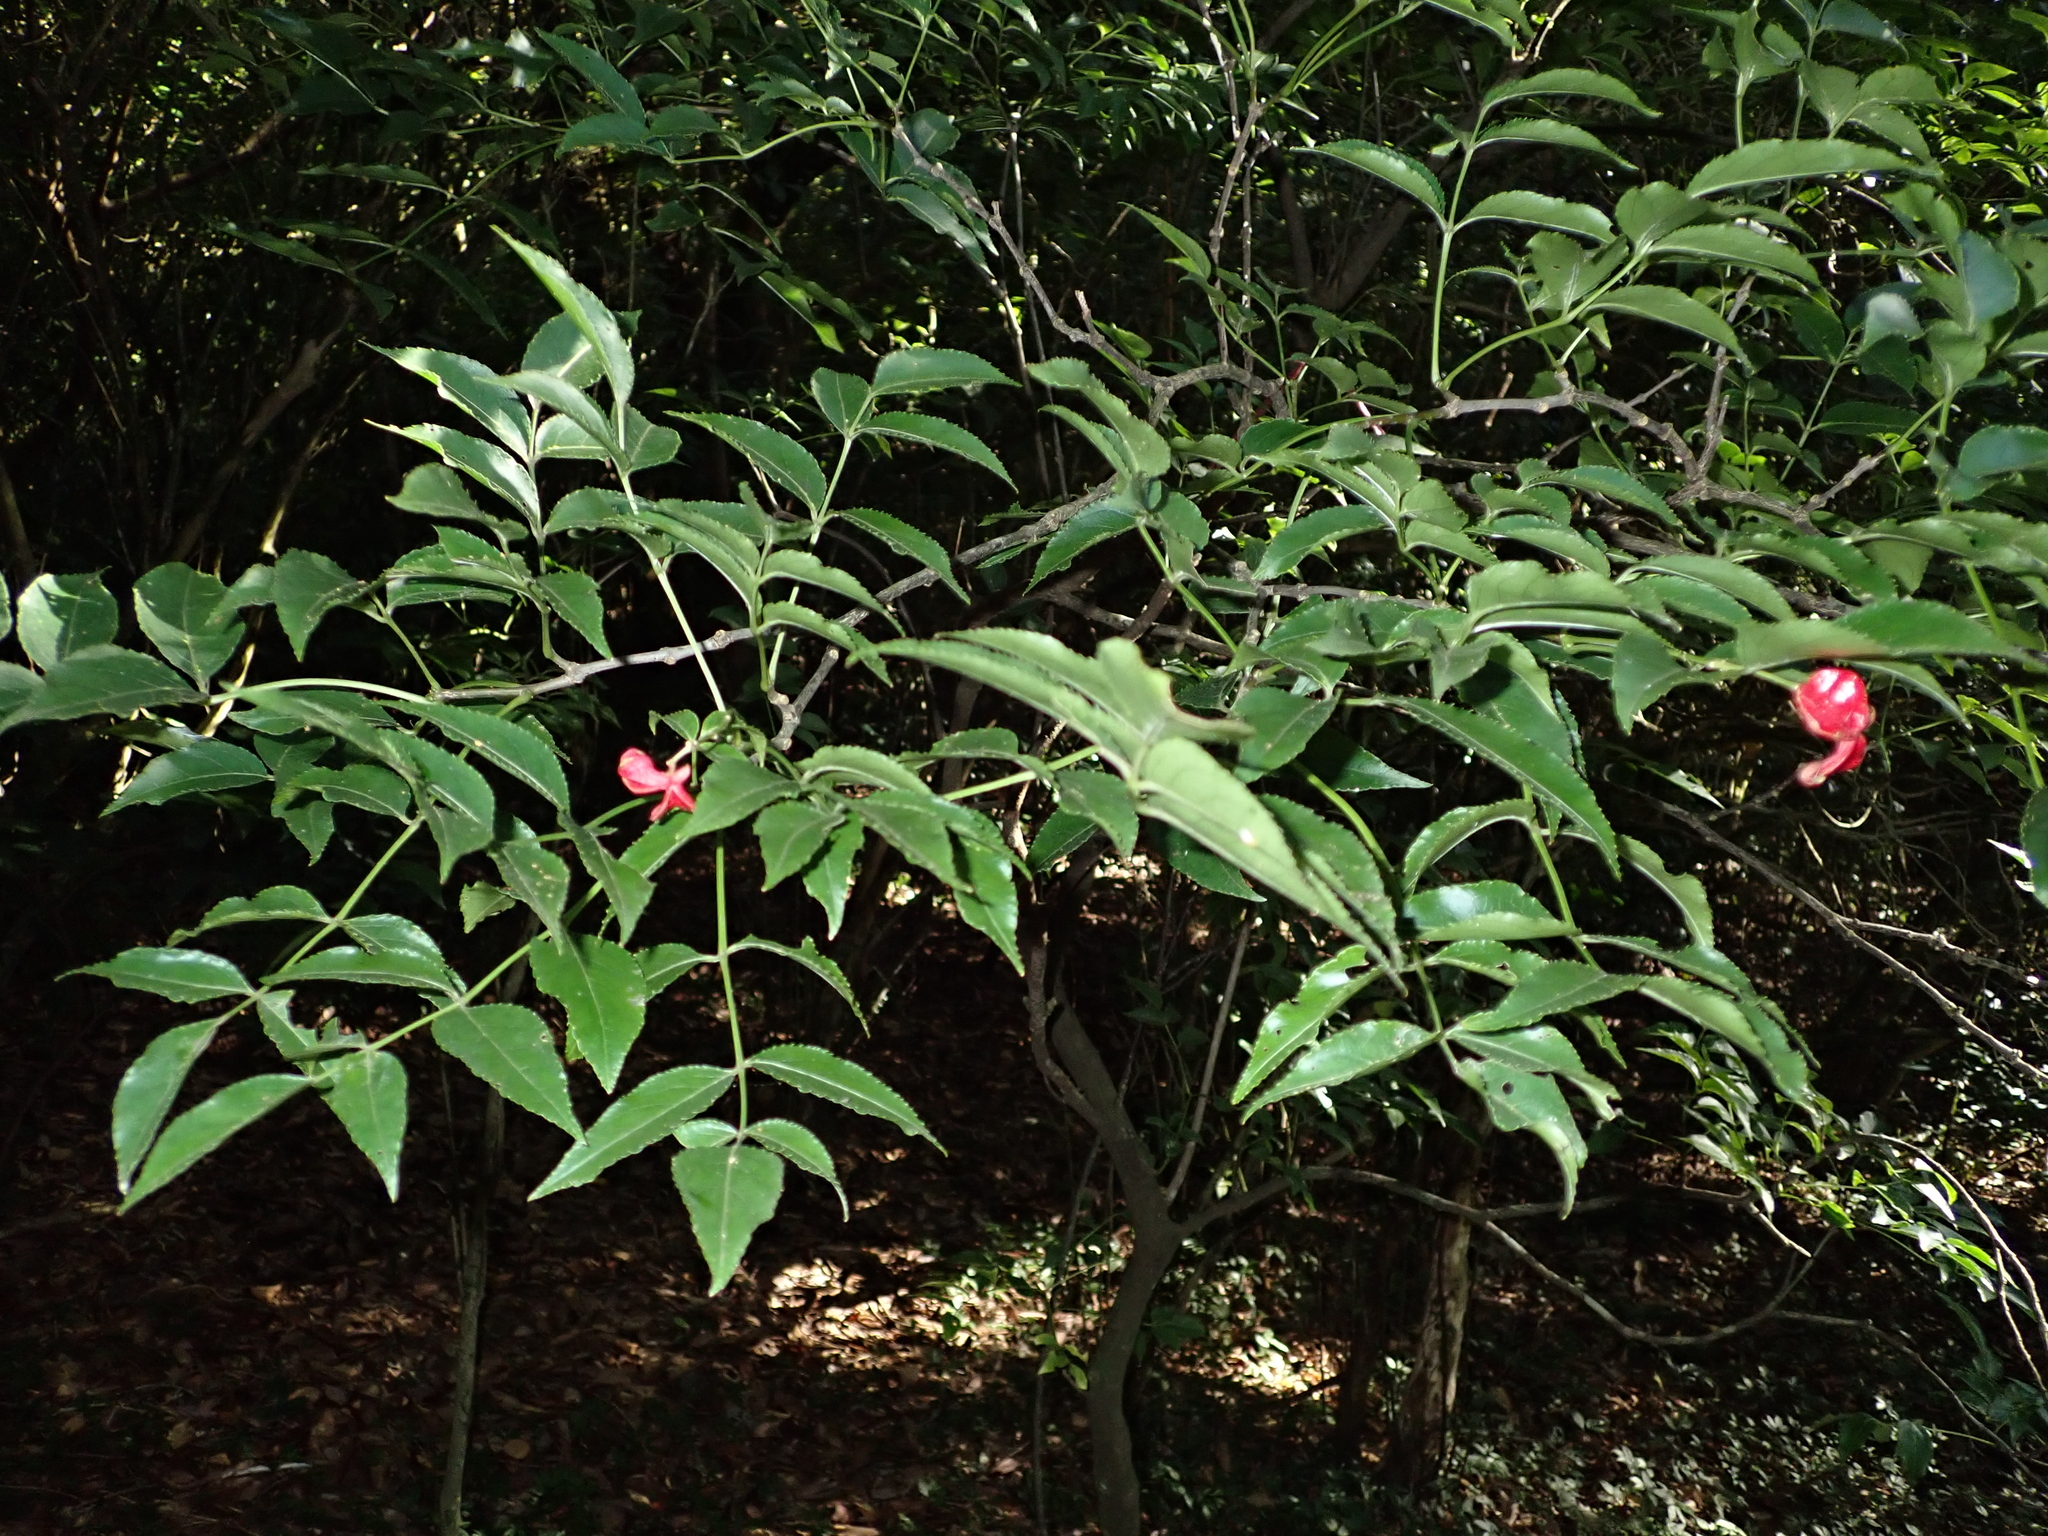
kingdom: Plantae
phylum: Tracheophyta
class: Magnoliopsida
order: Crossosomatales
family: Staphyleaceae
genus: Staphylea
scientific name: Staphylea japonica
